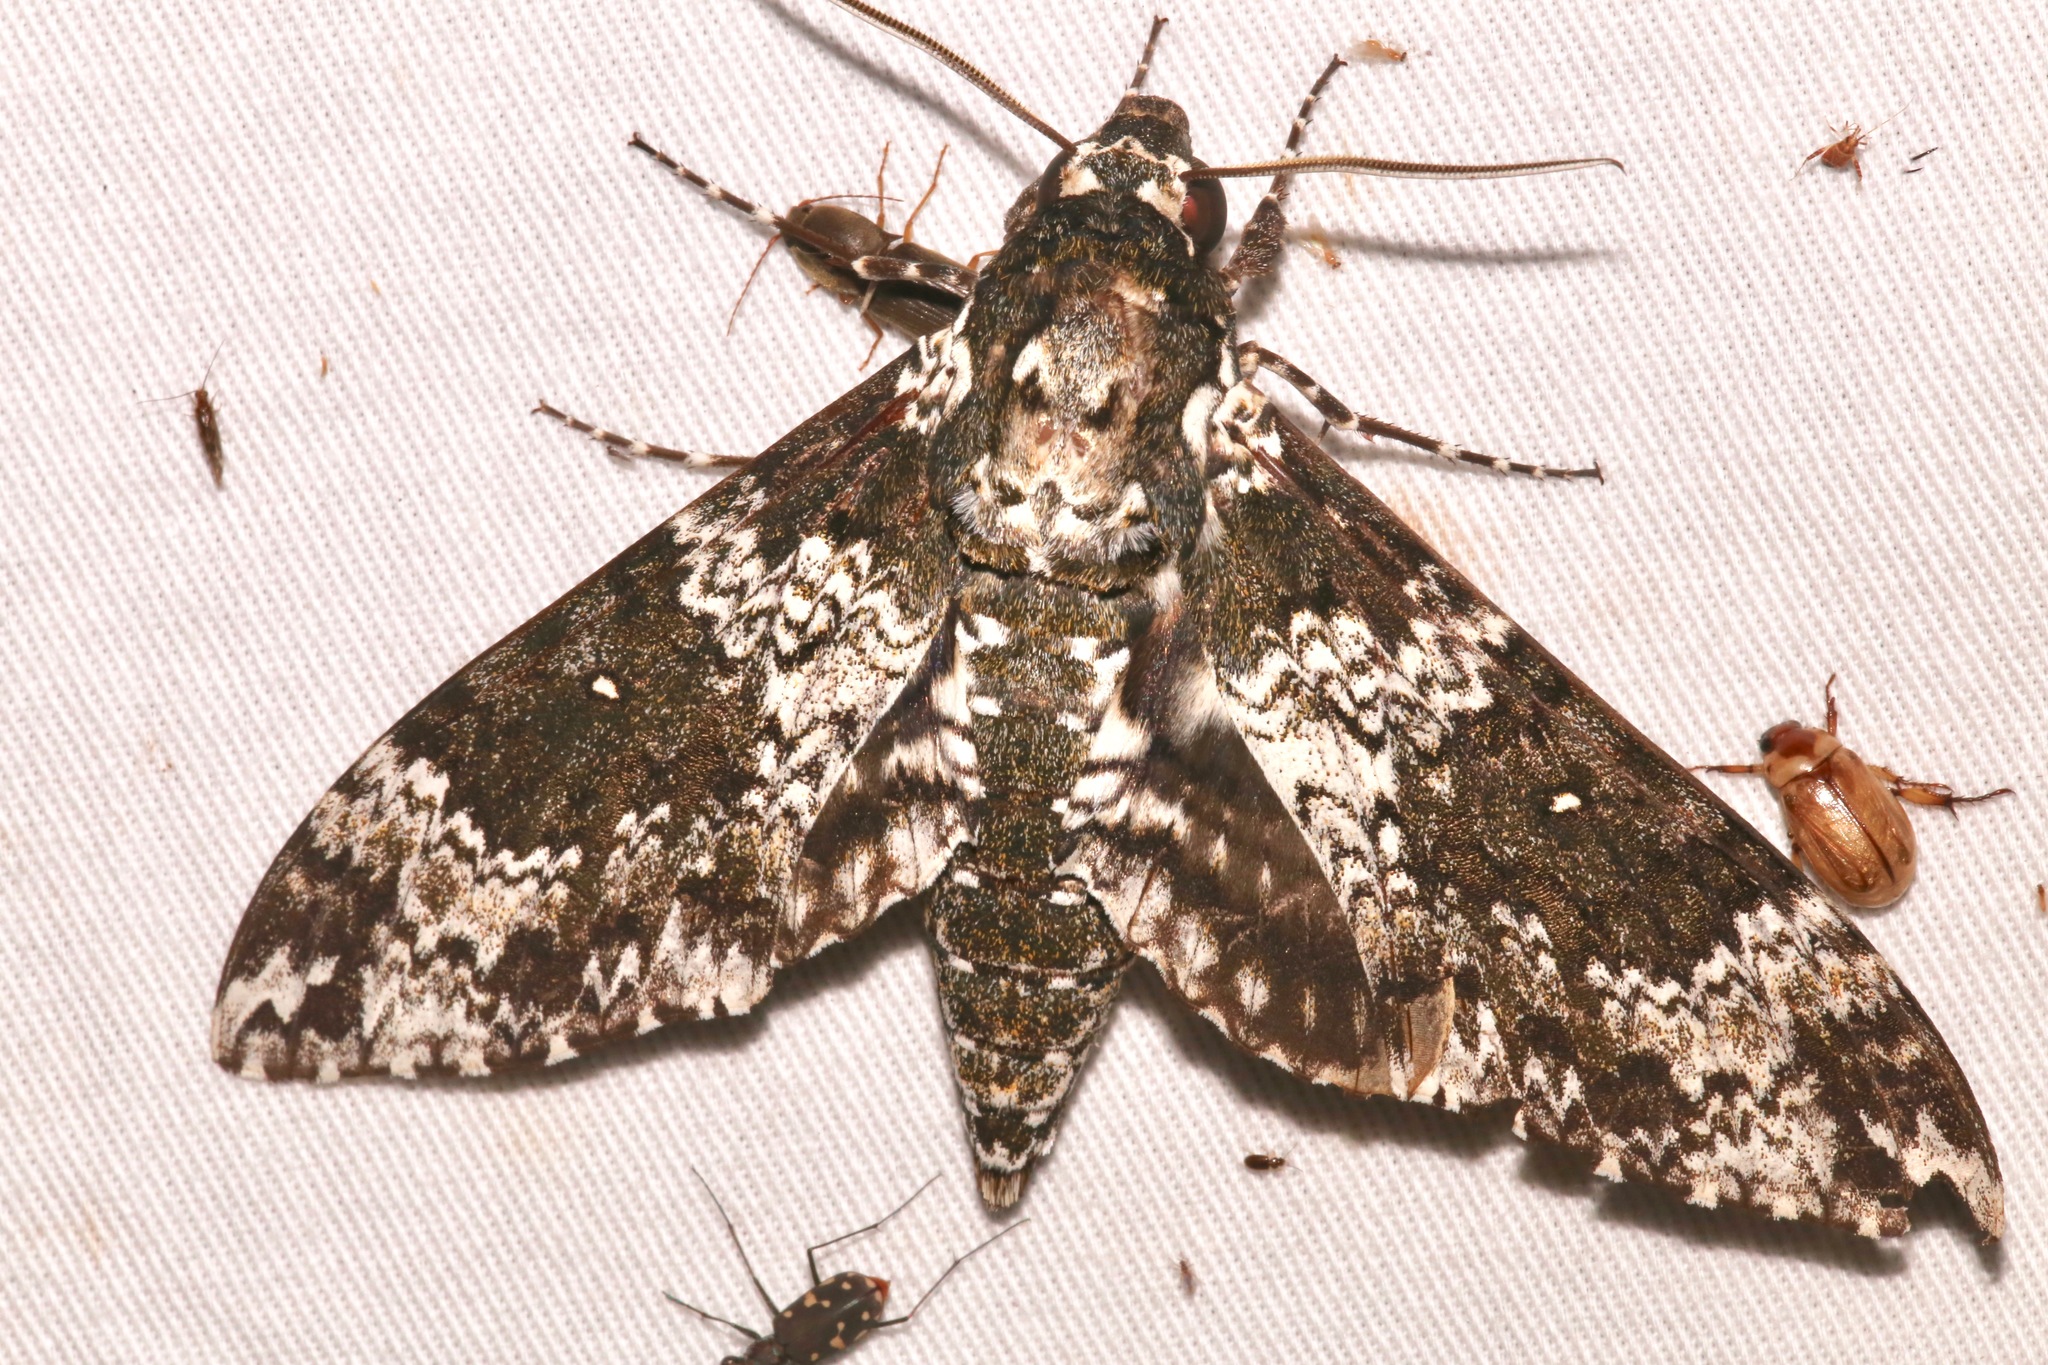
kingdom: Animalia
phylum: Arthropoda
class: Insecta
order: Lepidoptera
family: Sphingidae
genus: Manduca
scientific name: Manduca rustica
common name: Rustic sphinx
